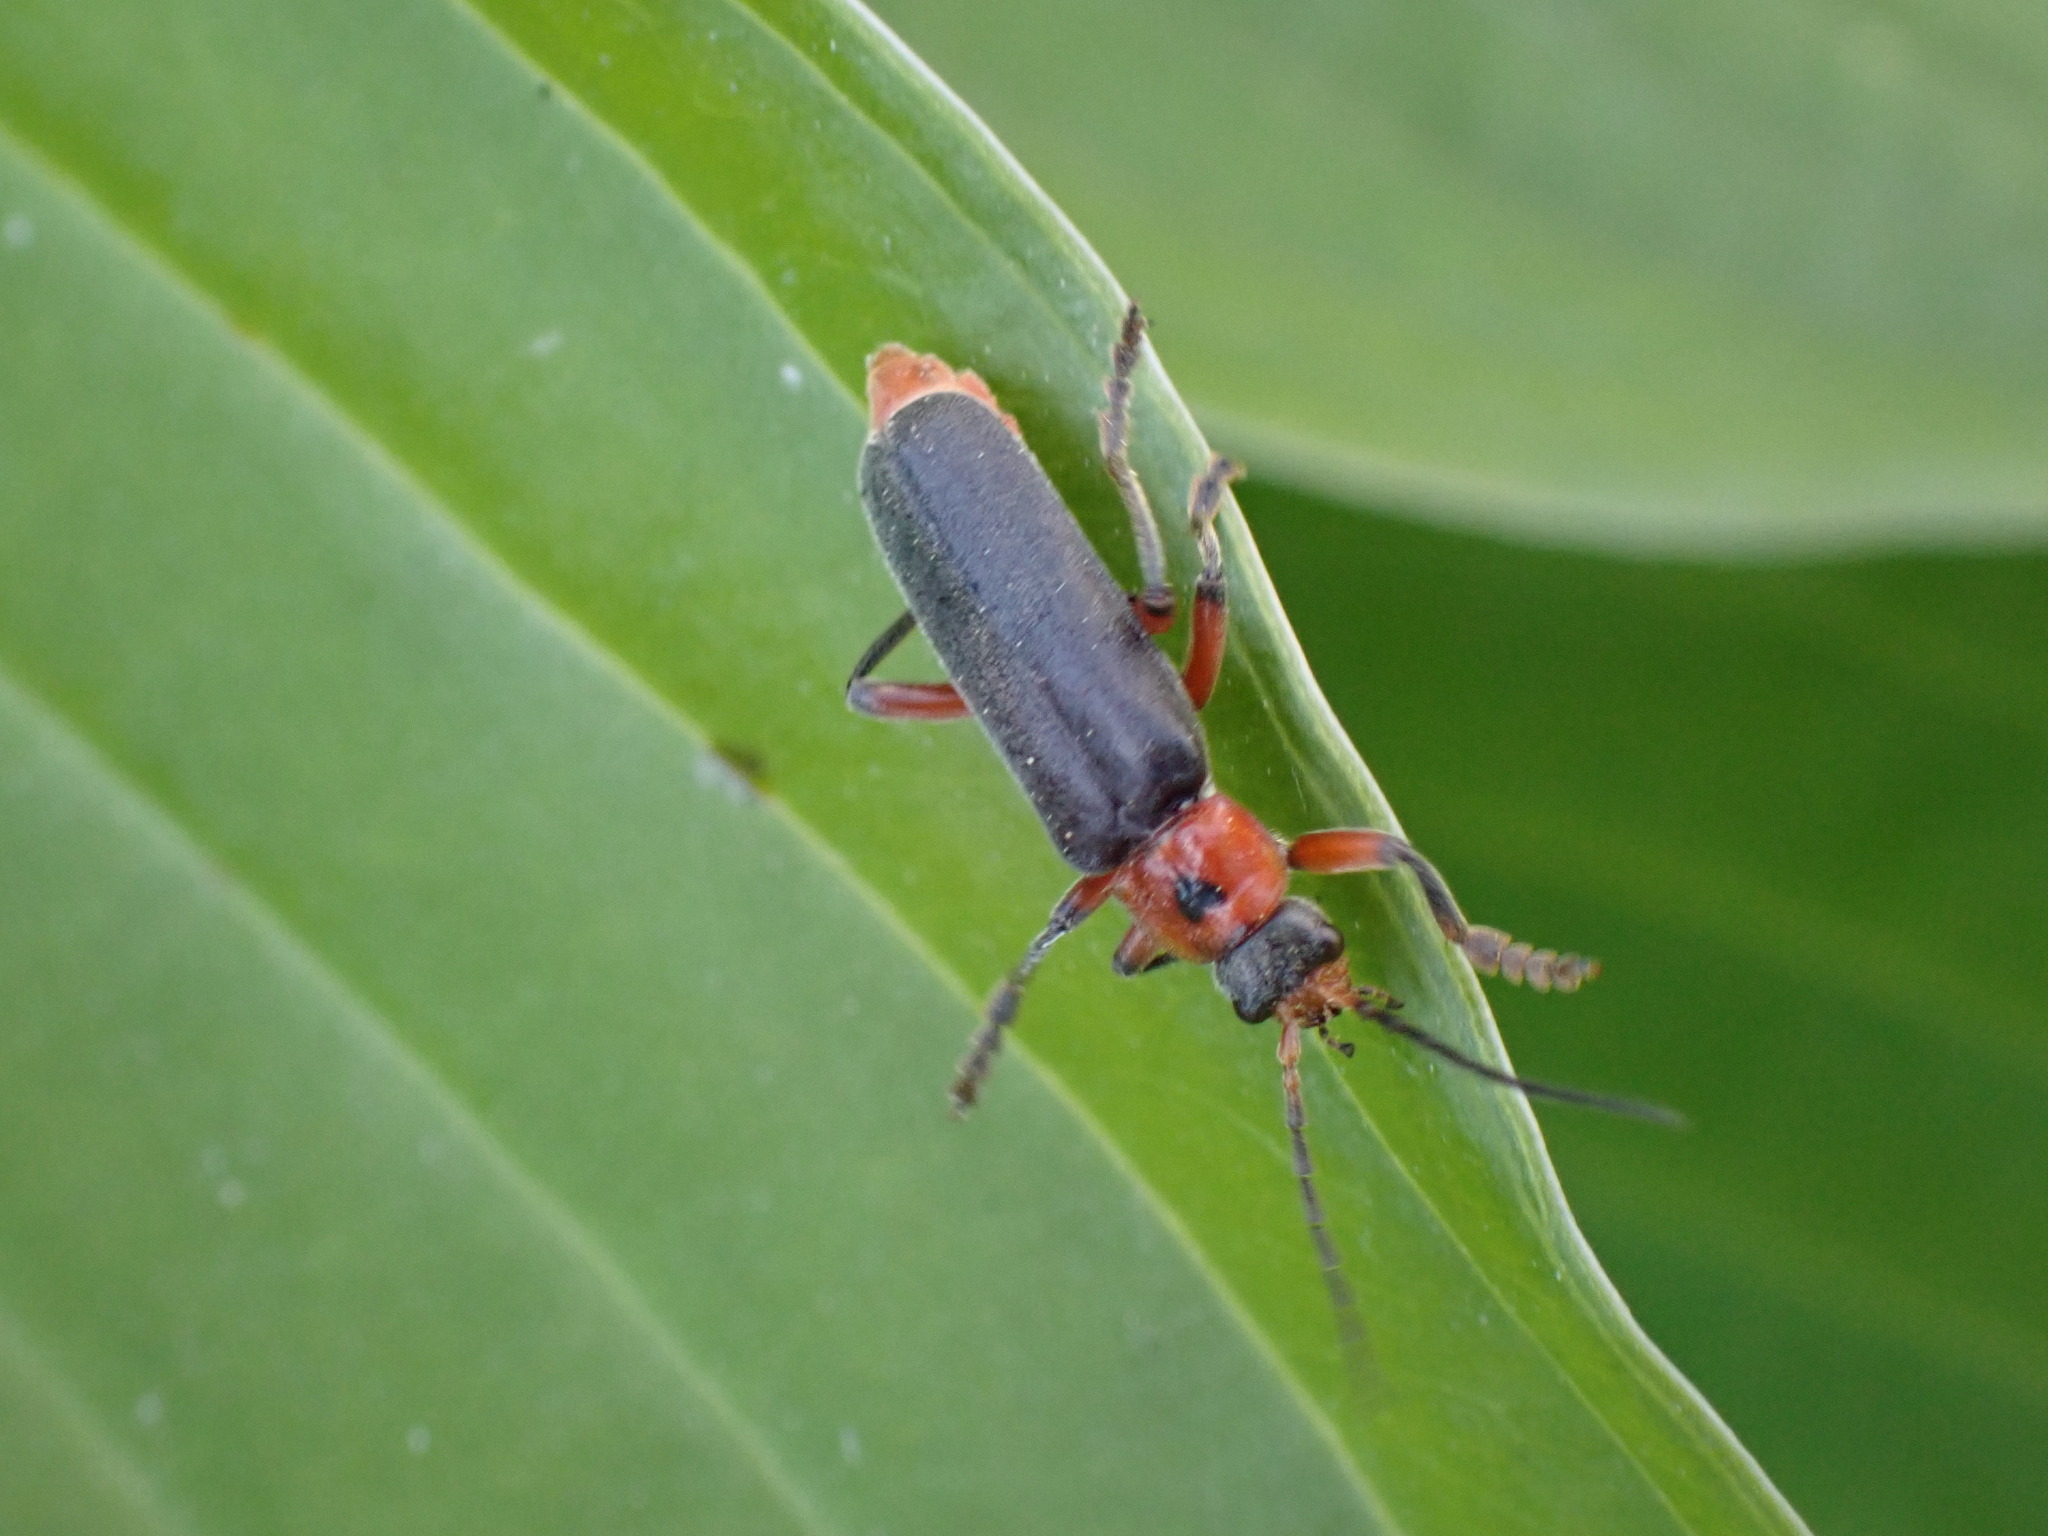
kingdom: Animalia
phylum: Arthropoda
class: Insecta
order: Coleoptera
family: Cantharidae
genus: Cantharis
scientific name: Cantharis rustica
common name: Soldier beetle
